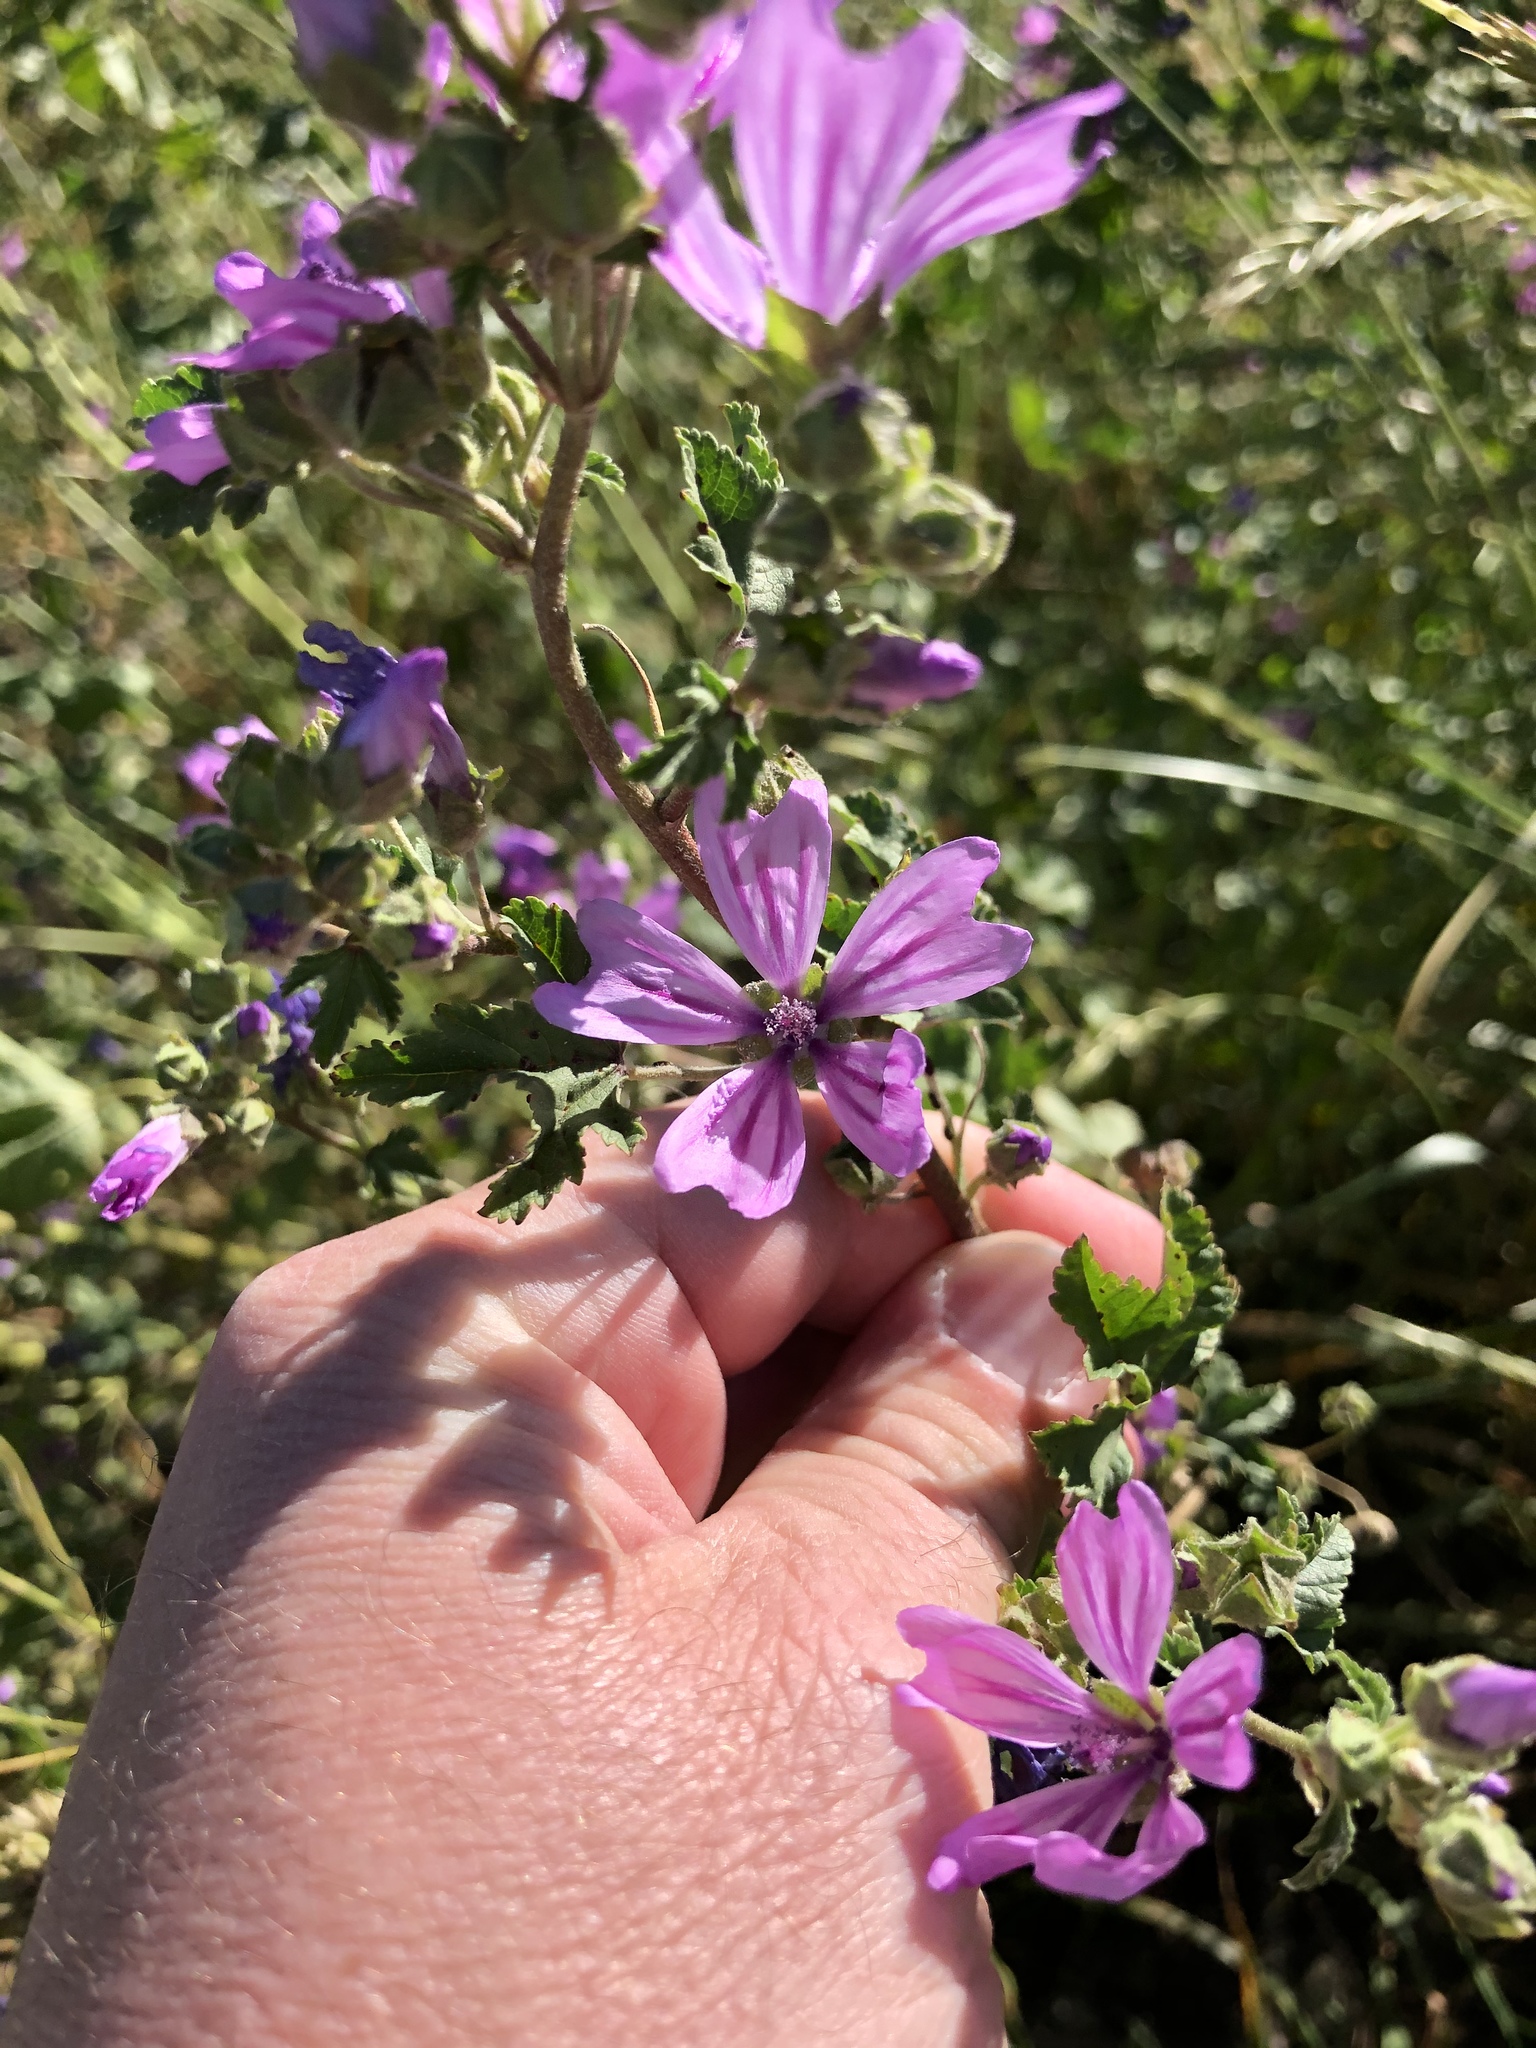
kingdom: Plantae
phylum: Tracheophyta
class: Magnoliopsida
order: Malvales
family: Malvaceae
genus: Malva
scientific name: Malva sylvestris
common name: Common mallow
